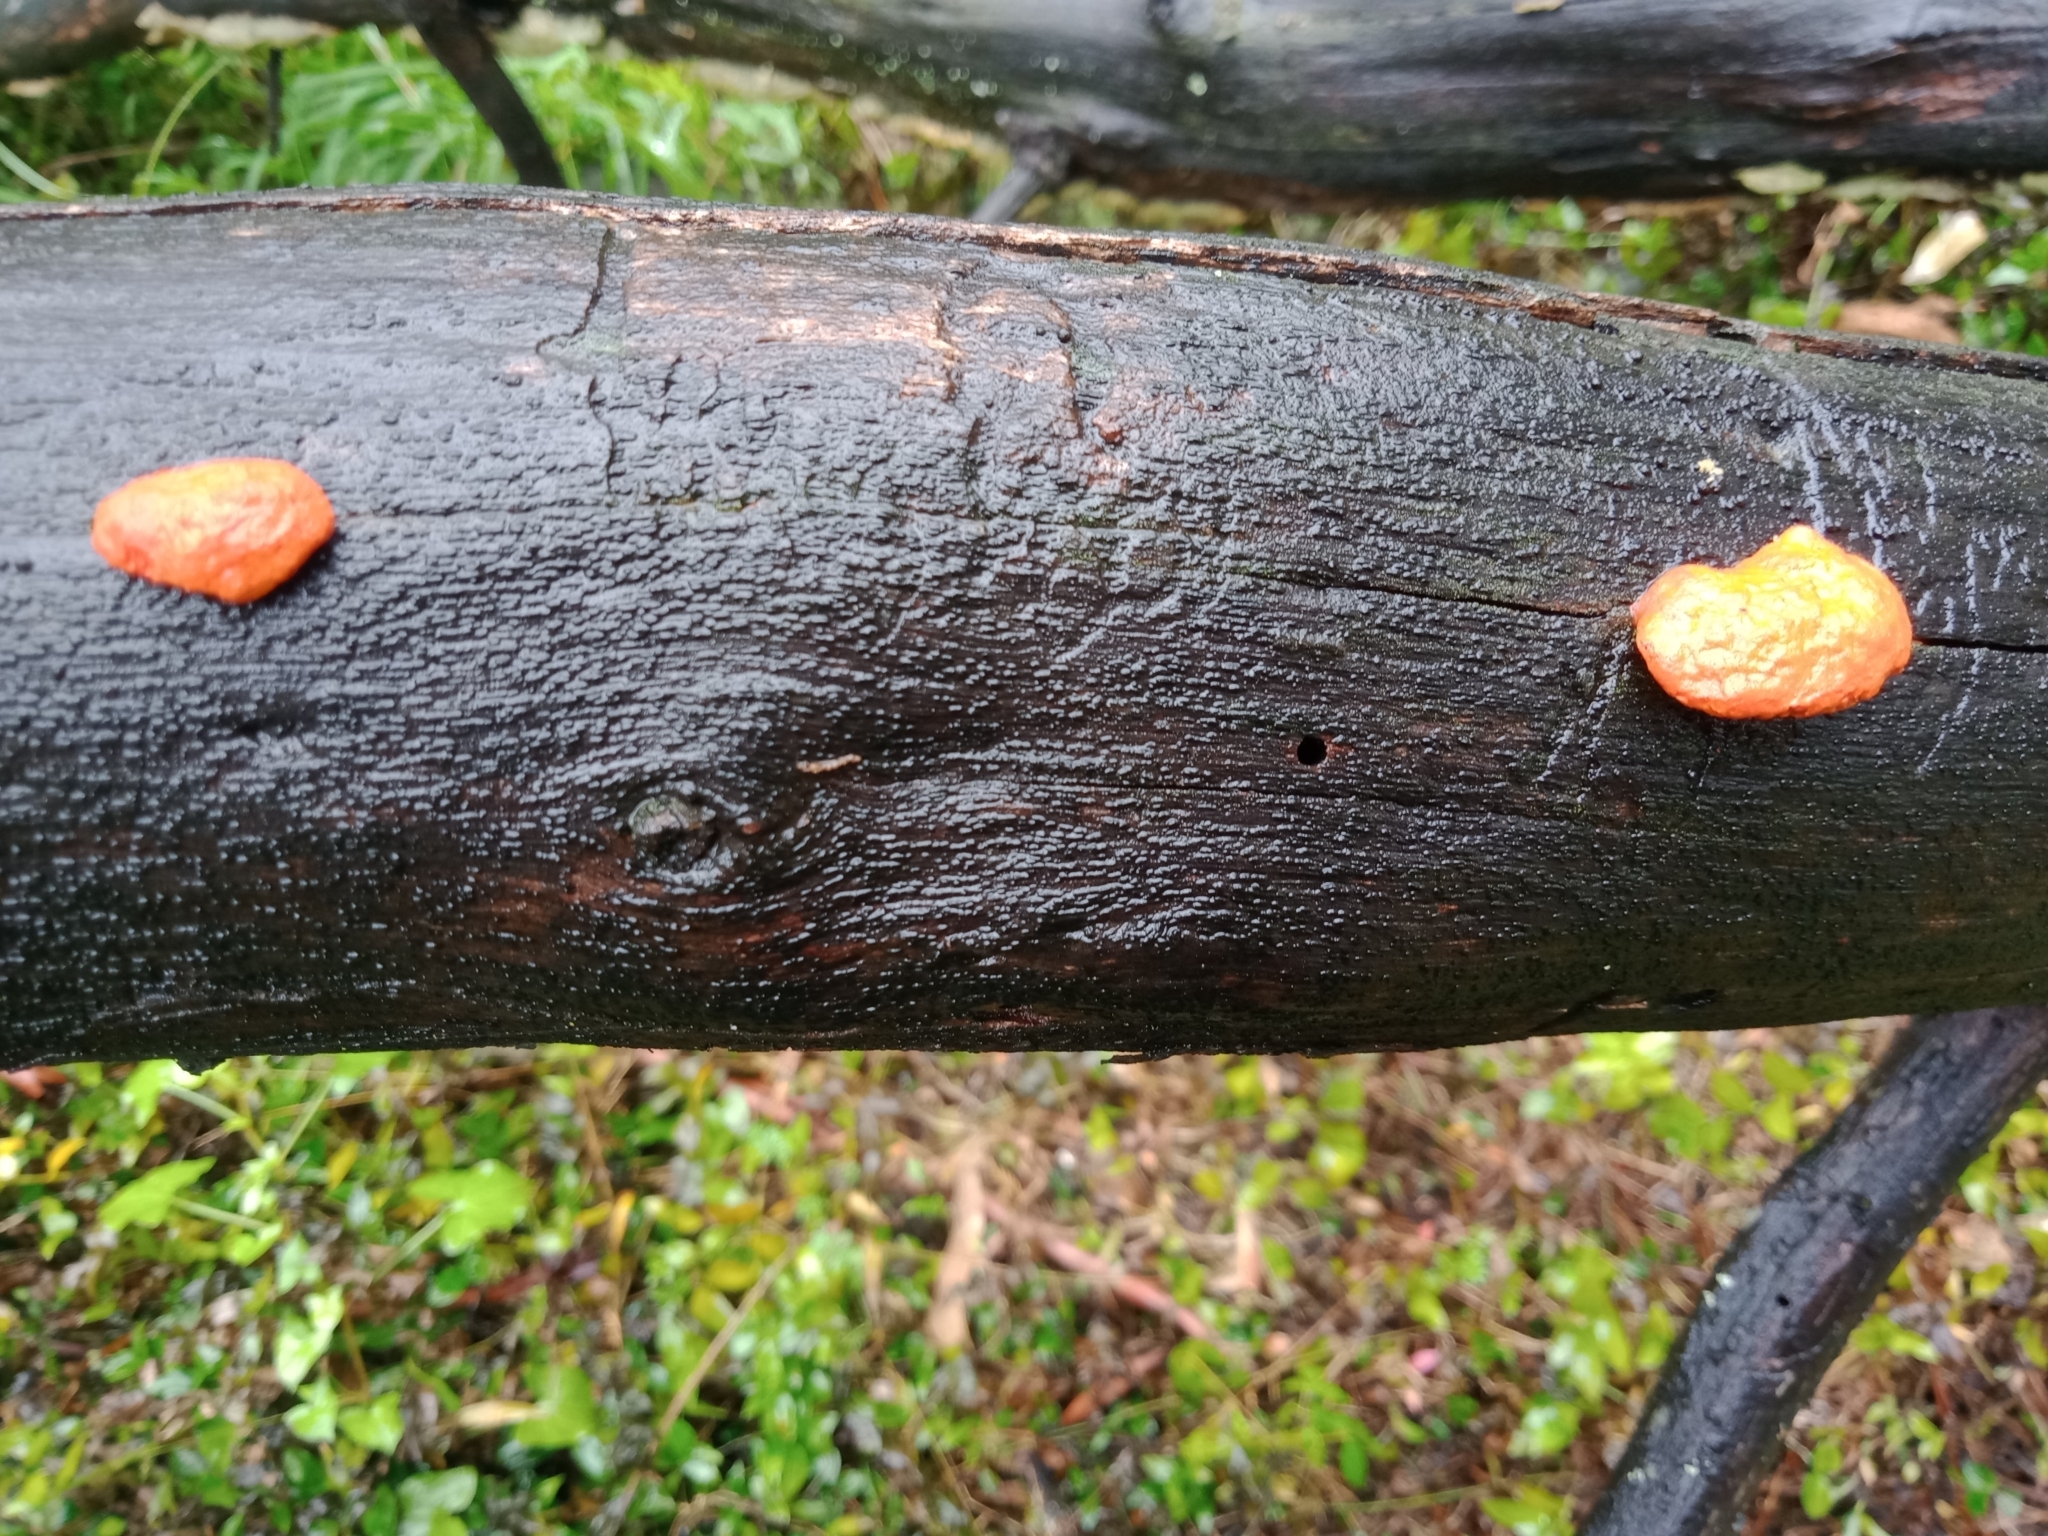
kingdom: Fungi
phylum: Basidiomycota
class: Agaricomycetes
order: Polyporales
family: Polyporaceae
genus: Trametes
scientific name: Trametes coccinea
